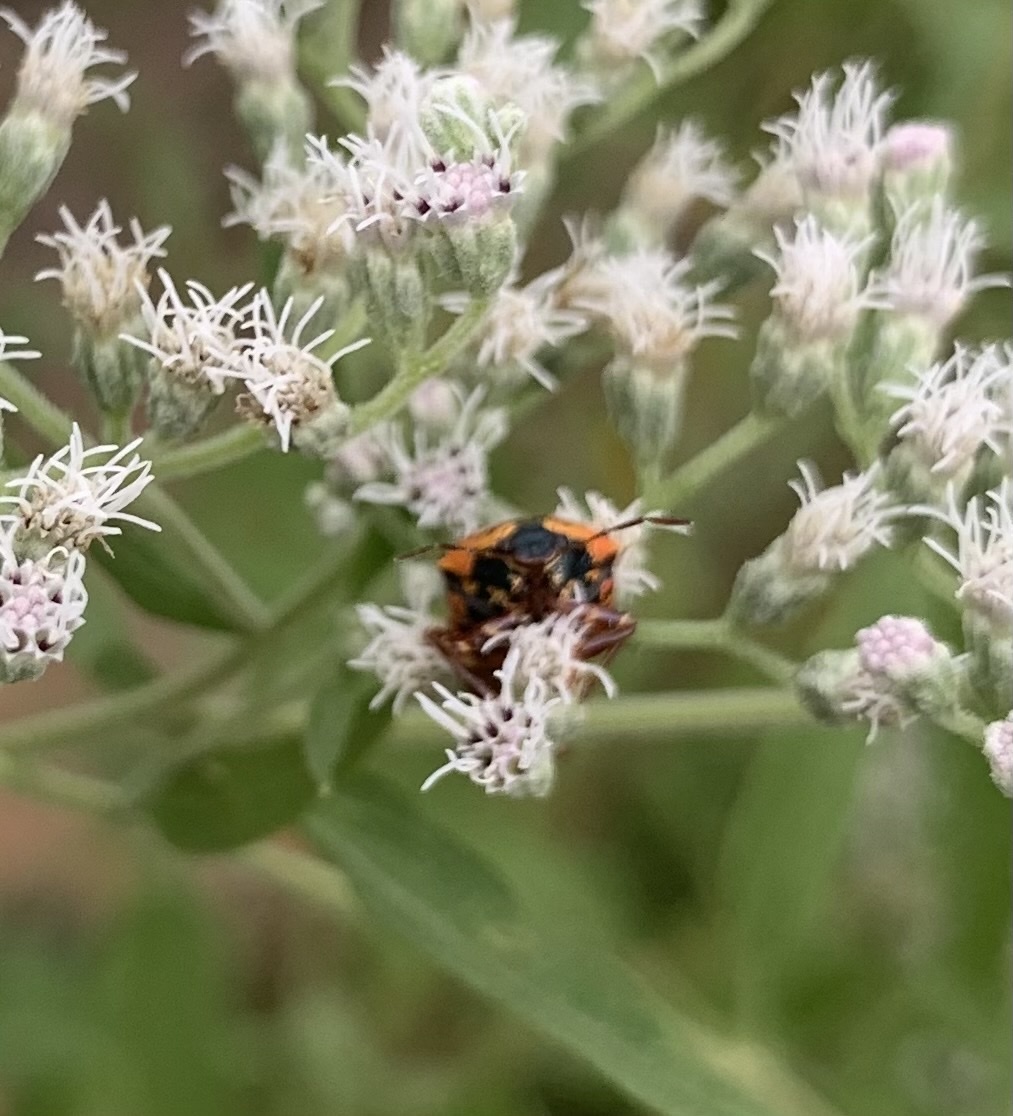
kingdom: Animalia
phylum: Arthropoda
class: Insecta
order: Hemiptera
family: Pentatomidae
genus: Stiretrus
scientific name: Stiretrus anchorago
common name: Anchor stink bug
